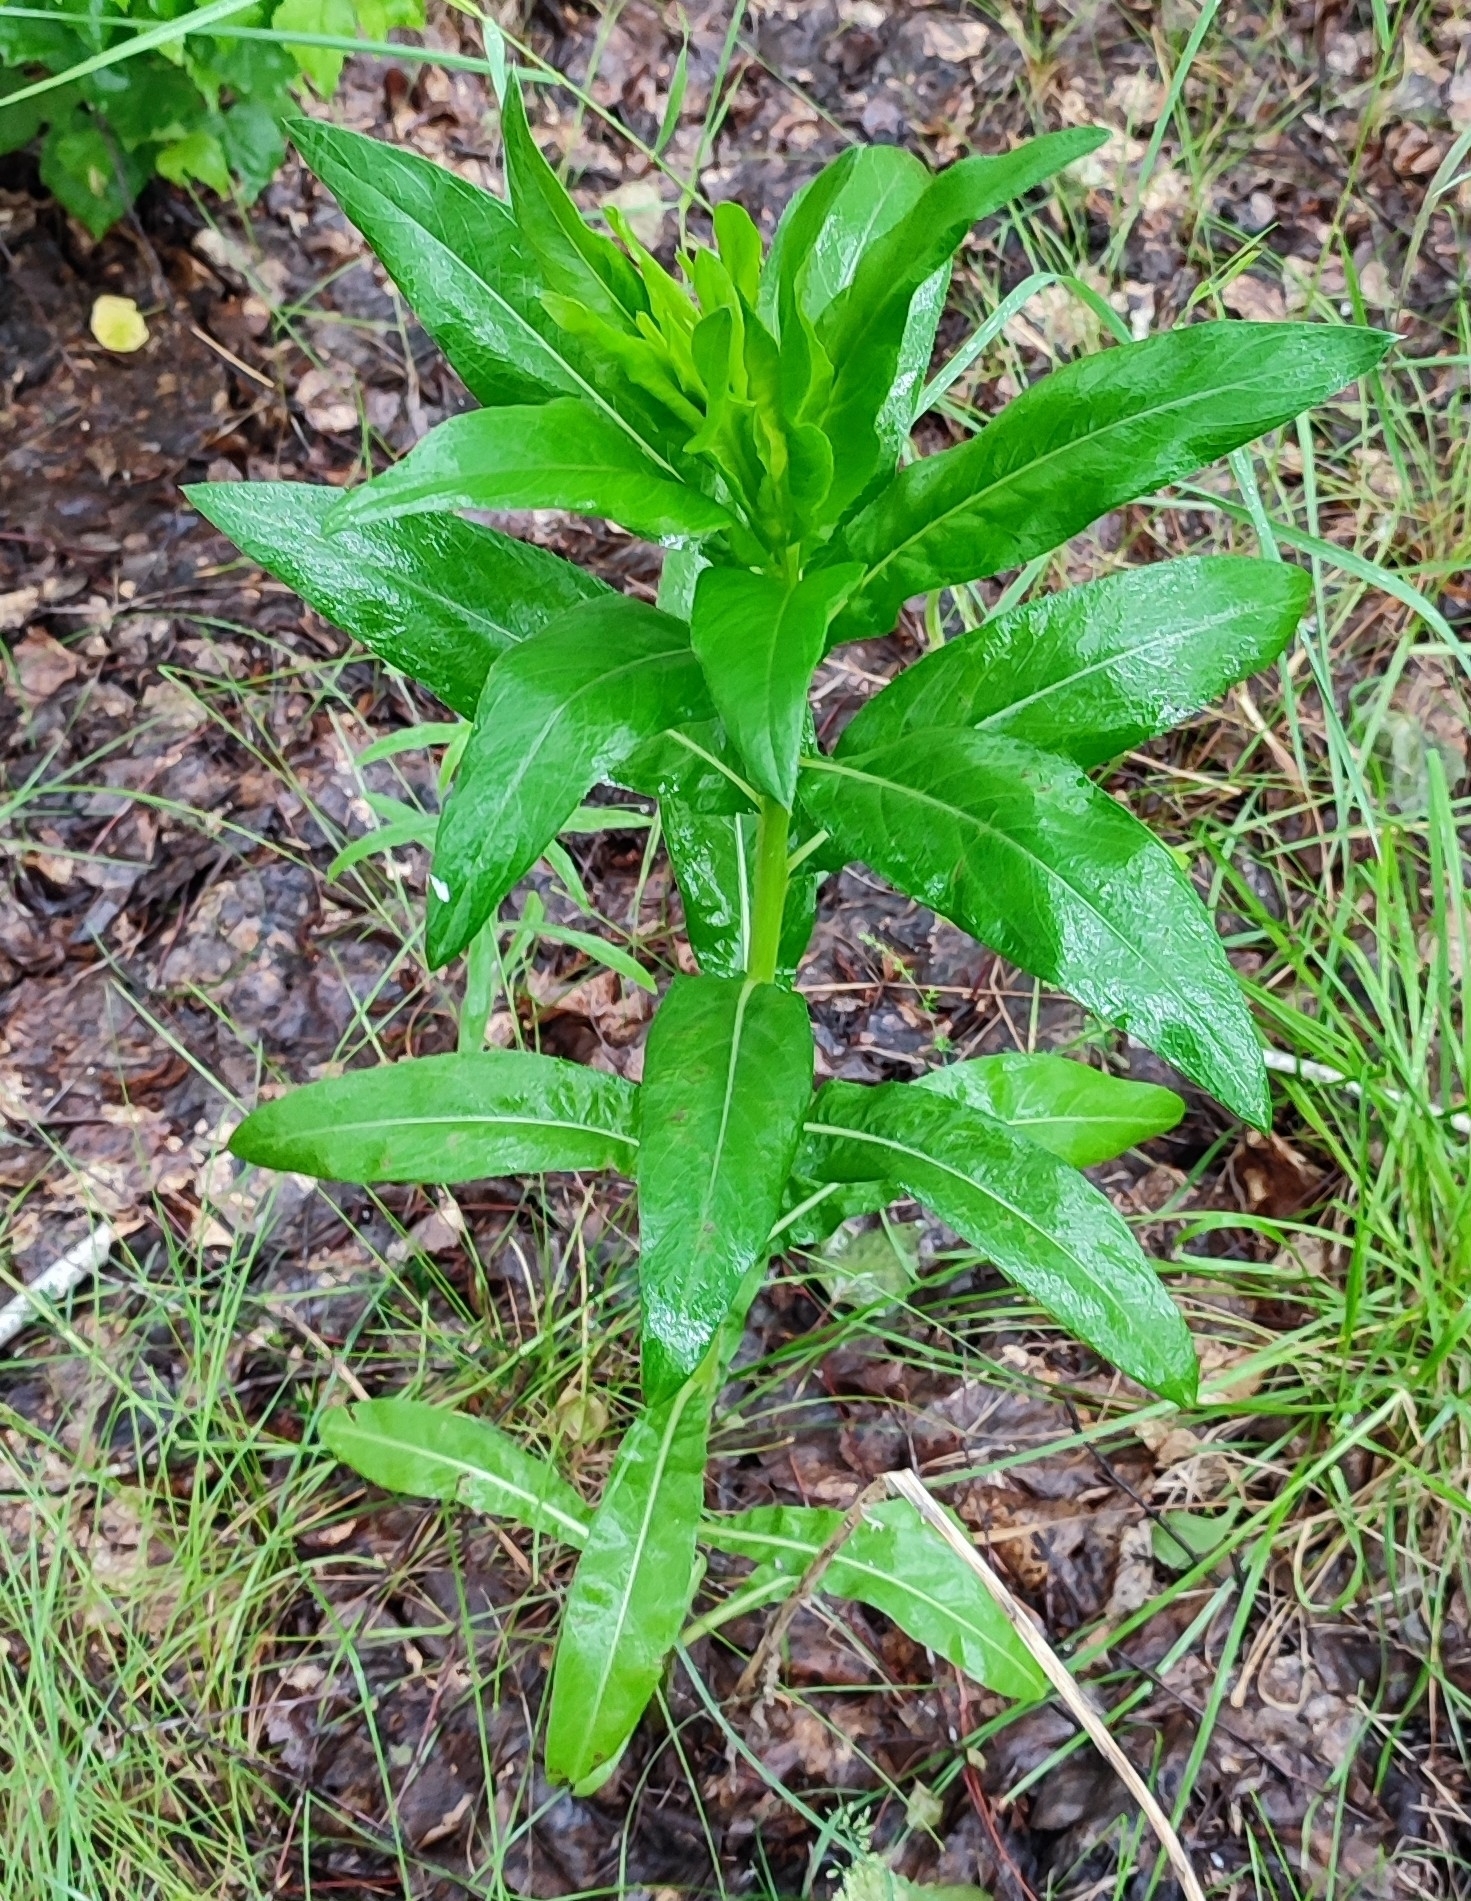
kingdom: Plantae
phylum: Tracheophyta
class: Magnoliopsida
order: Asterales
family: Asteraceae
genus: Cirsium
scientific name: Cirsium arvense
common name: Creeping thistle
